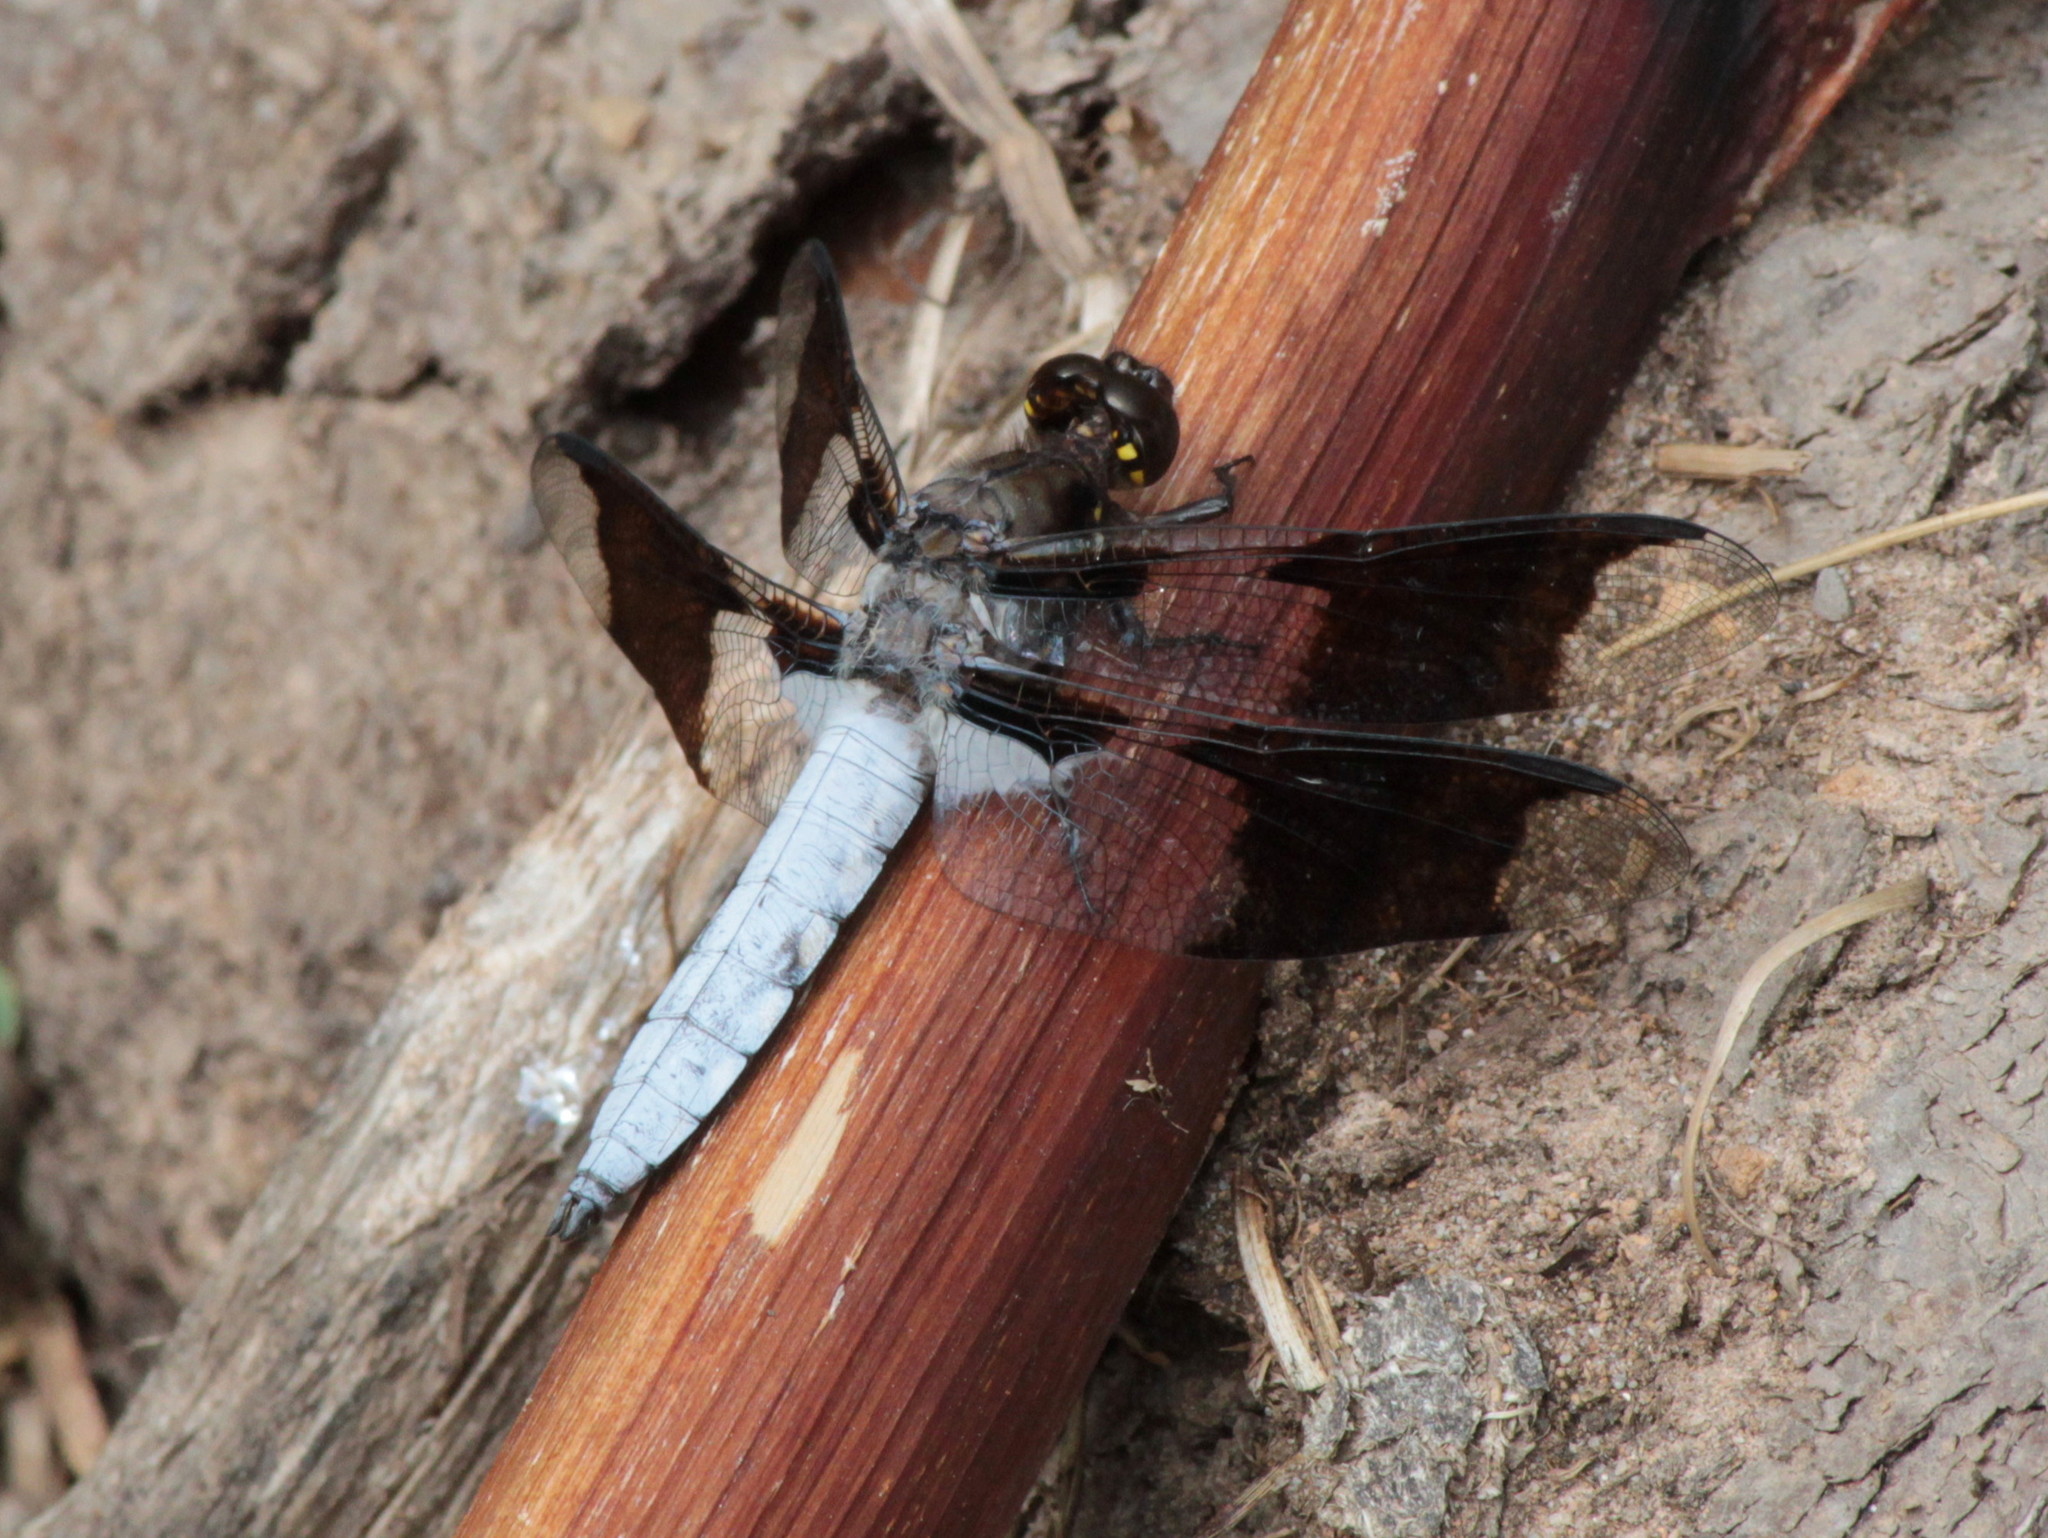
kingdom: Animalia
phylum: Arthropoda
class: Insecta
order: Odonata
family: Libellulidae
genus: Plathemis
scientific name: Plathemis lydia
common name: Common whitetail
